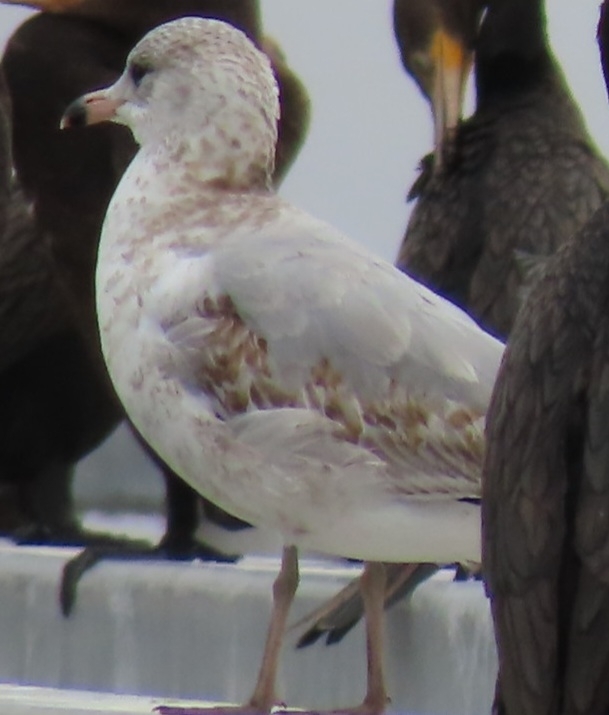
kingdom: Animalia
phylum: Chordata
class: Aves
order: Charadriiformes
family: Laridae
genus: Larus
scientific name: Larus delawarensis
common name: Ring-billed gull
